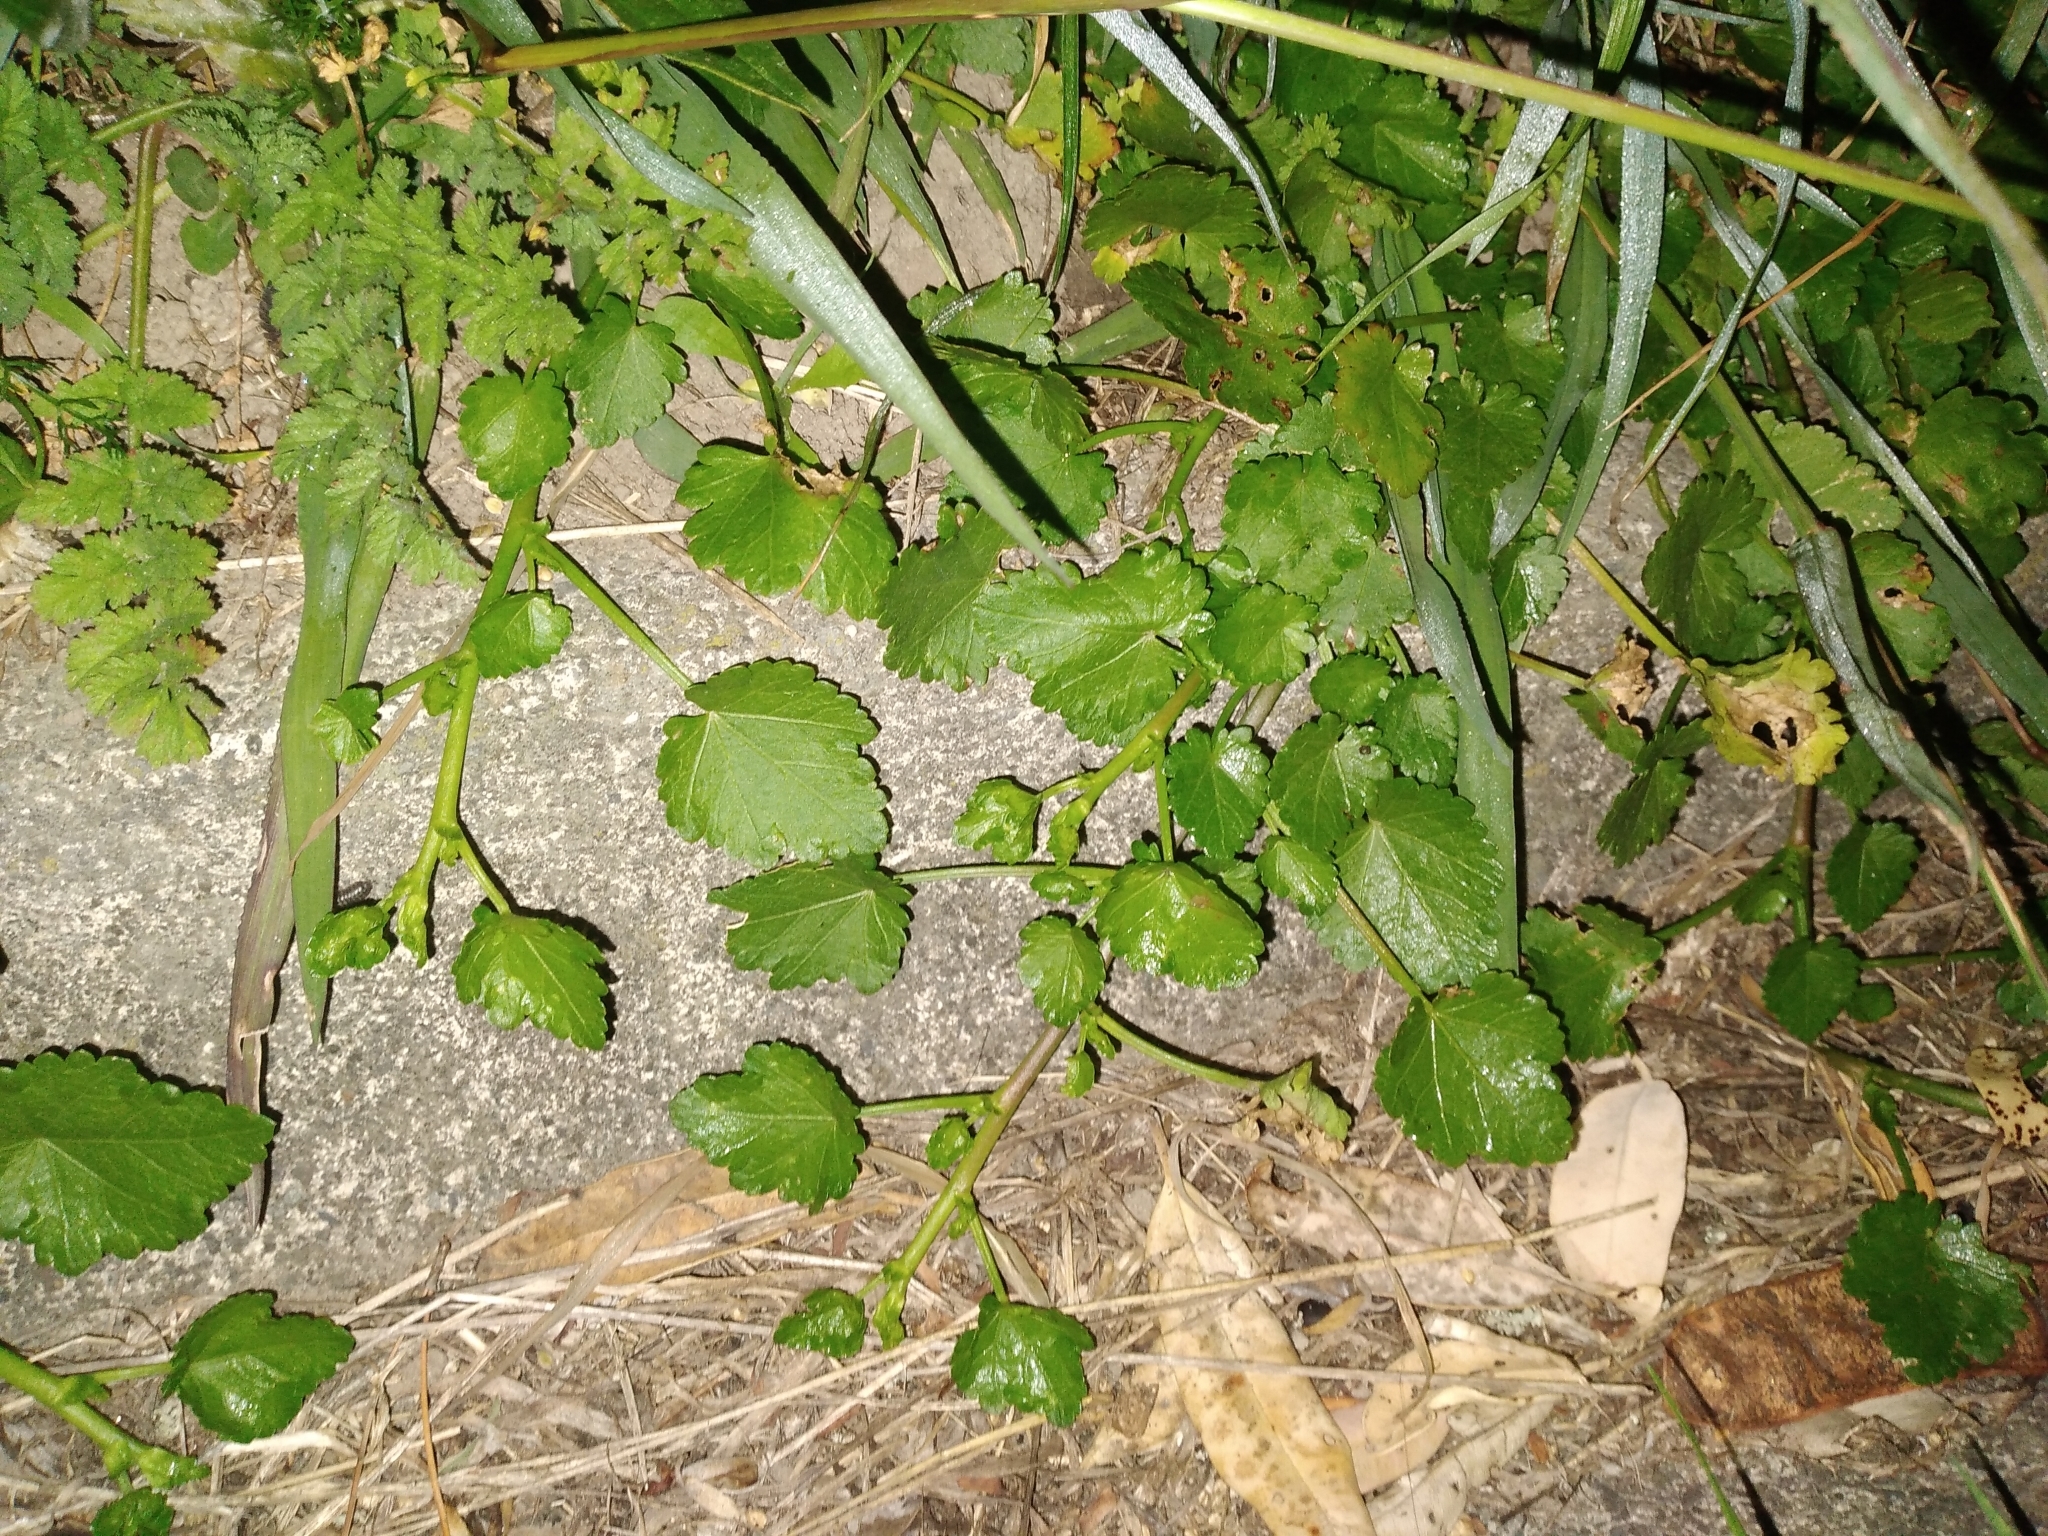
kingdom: Plantae
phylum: Tracheophyta
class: Magnoliopsida
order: Malvales
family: Malvaceae
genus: Modiola
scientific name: Modiola caroliniana
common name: Carolina bristlemallow
